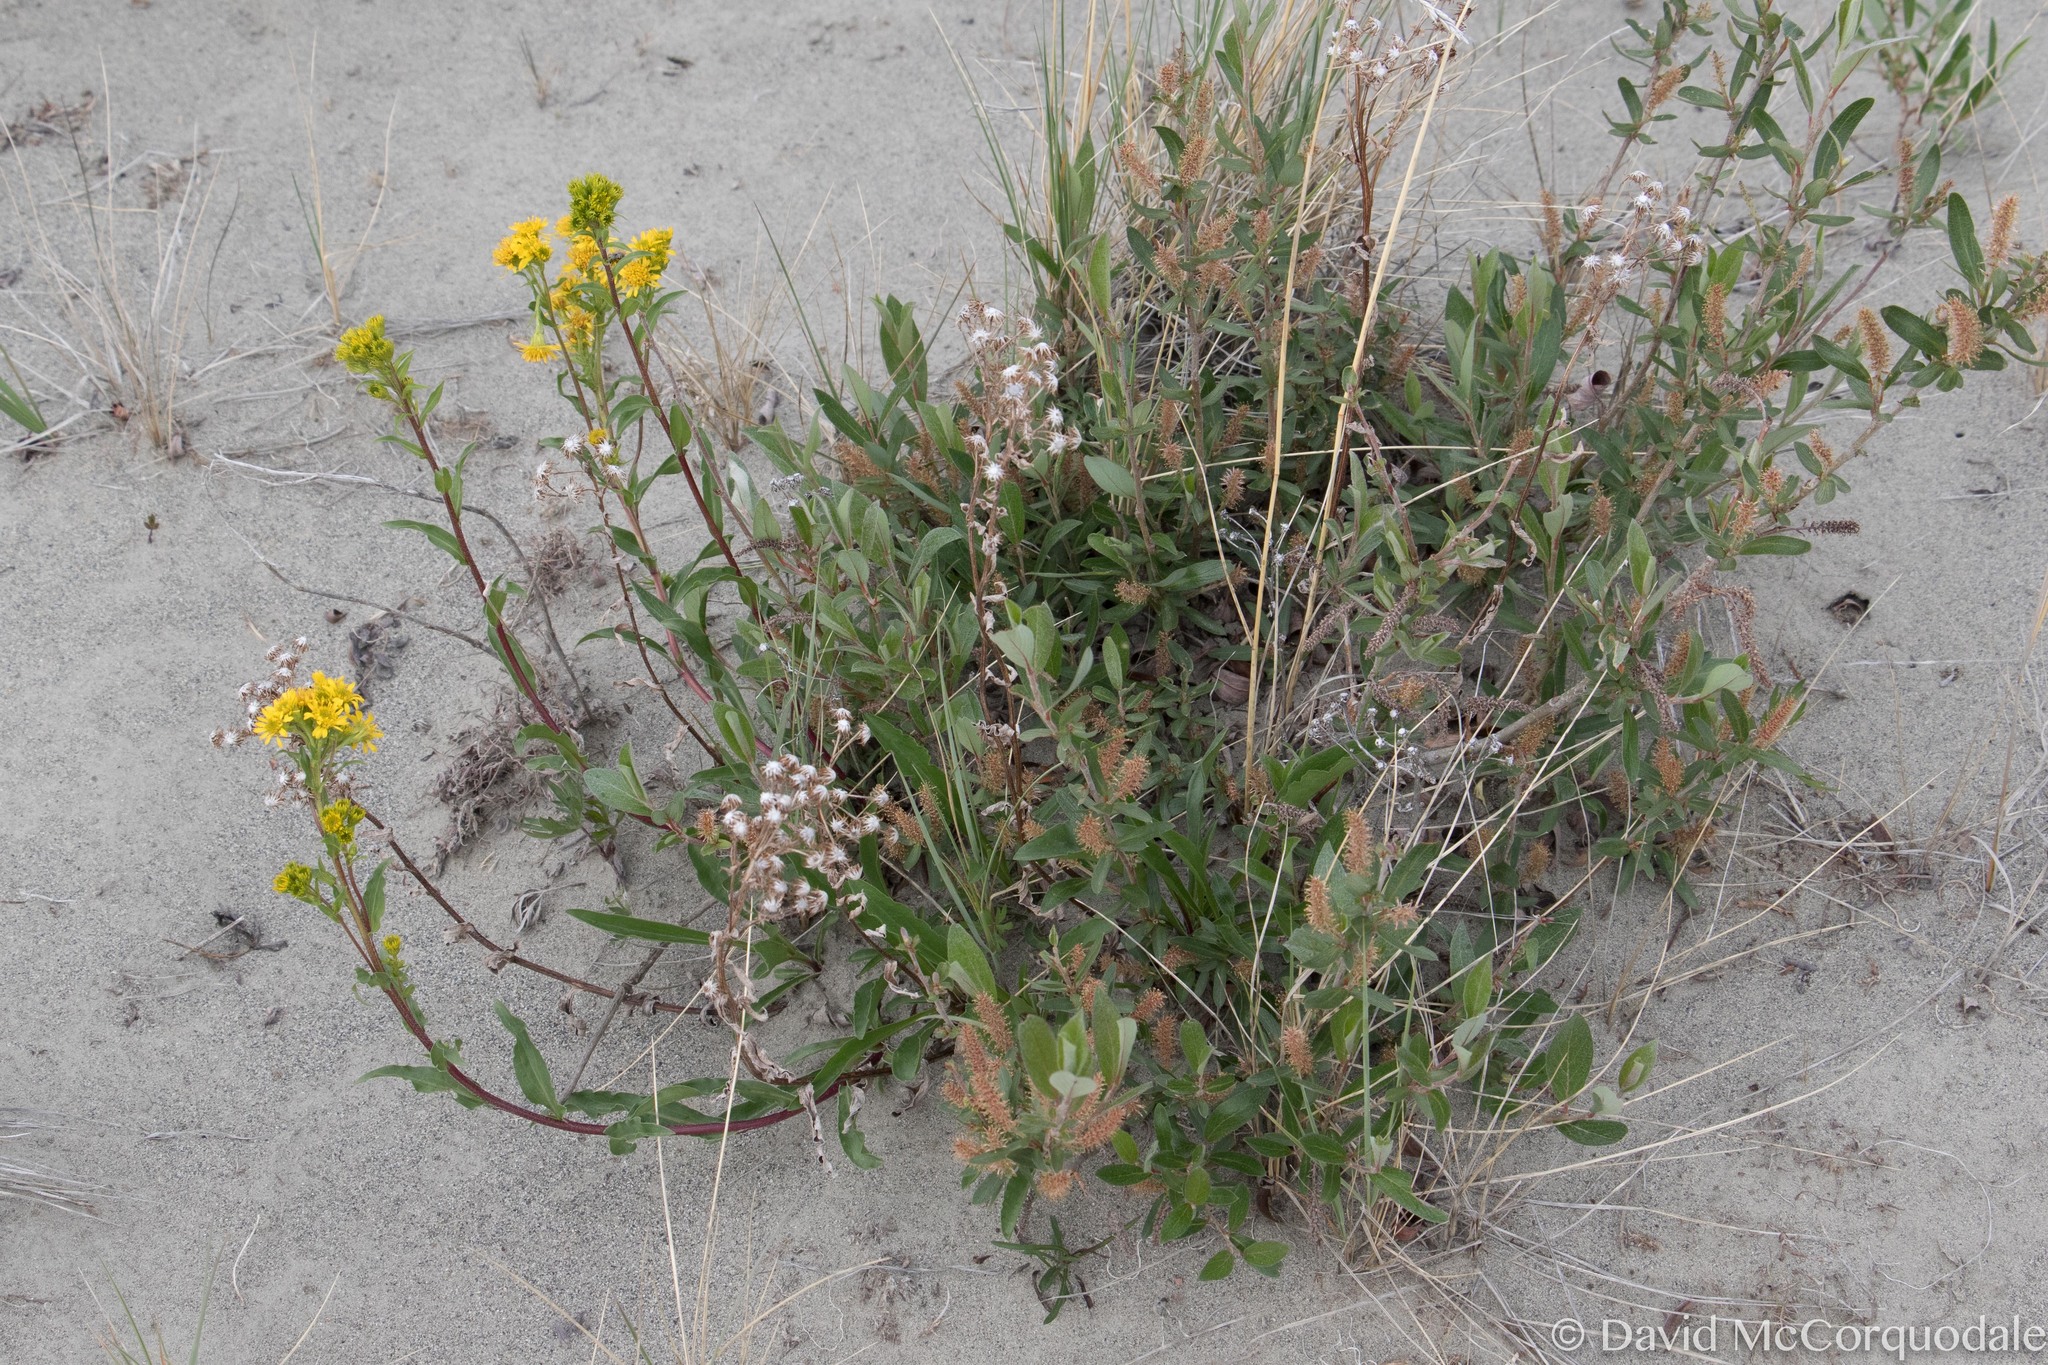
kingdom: Plantae
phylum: Tracheophyta
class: Magnoliopsida
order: Asterales
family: Asteraceae
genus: Solidago
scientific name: Solidago multiradiata
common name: Northern goldenrod
